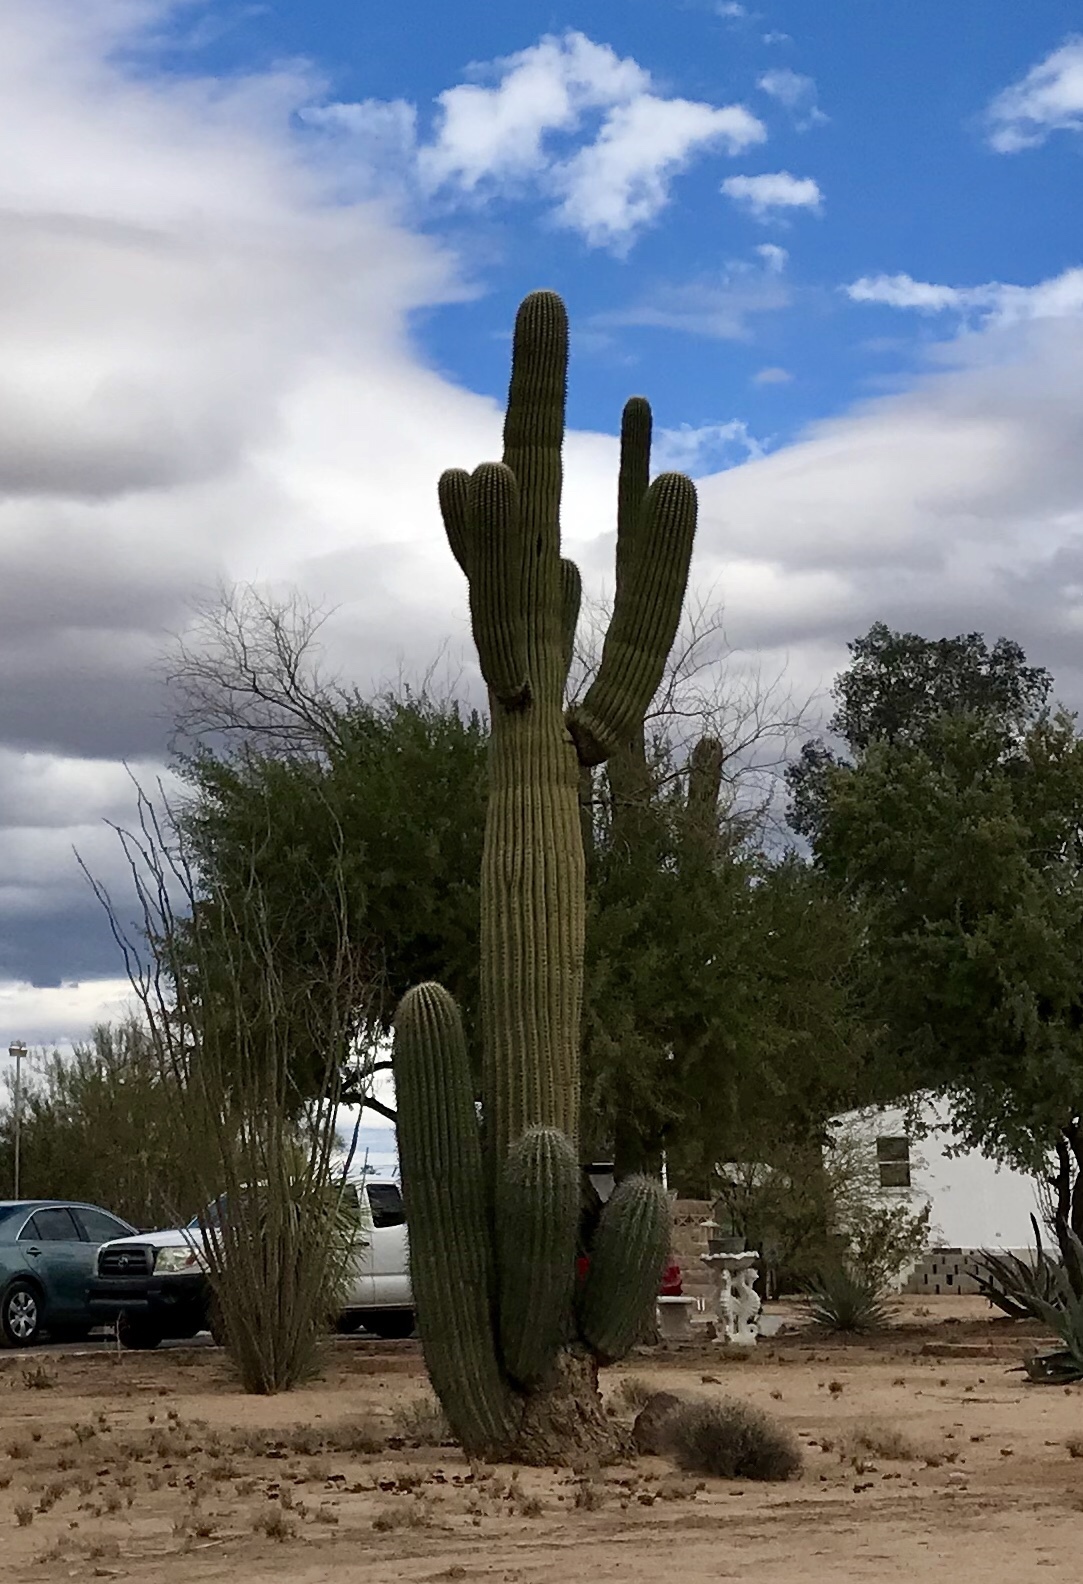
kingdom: Plantae
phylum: Tracheophyta
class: Magnoliopsida
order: Caryophyllales
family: Cactaceae
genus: Carnegiea
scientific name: Carnegiea gigantea
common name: Saguaro
